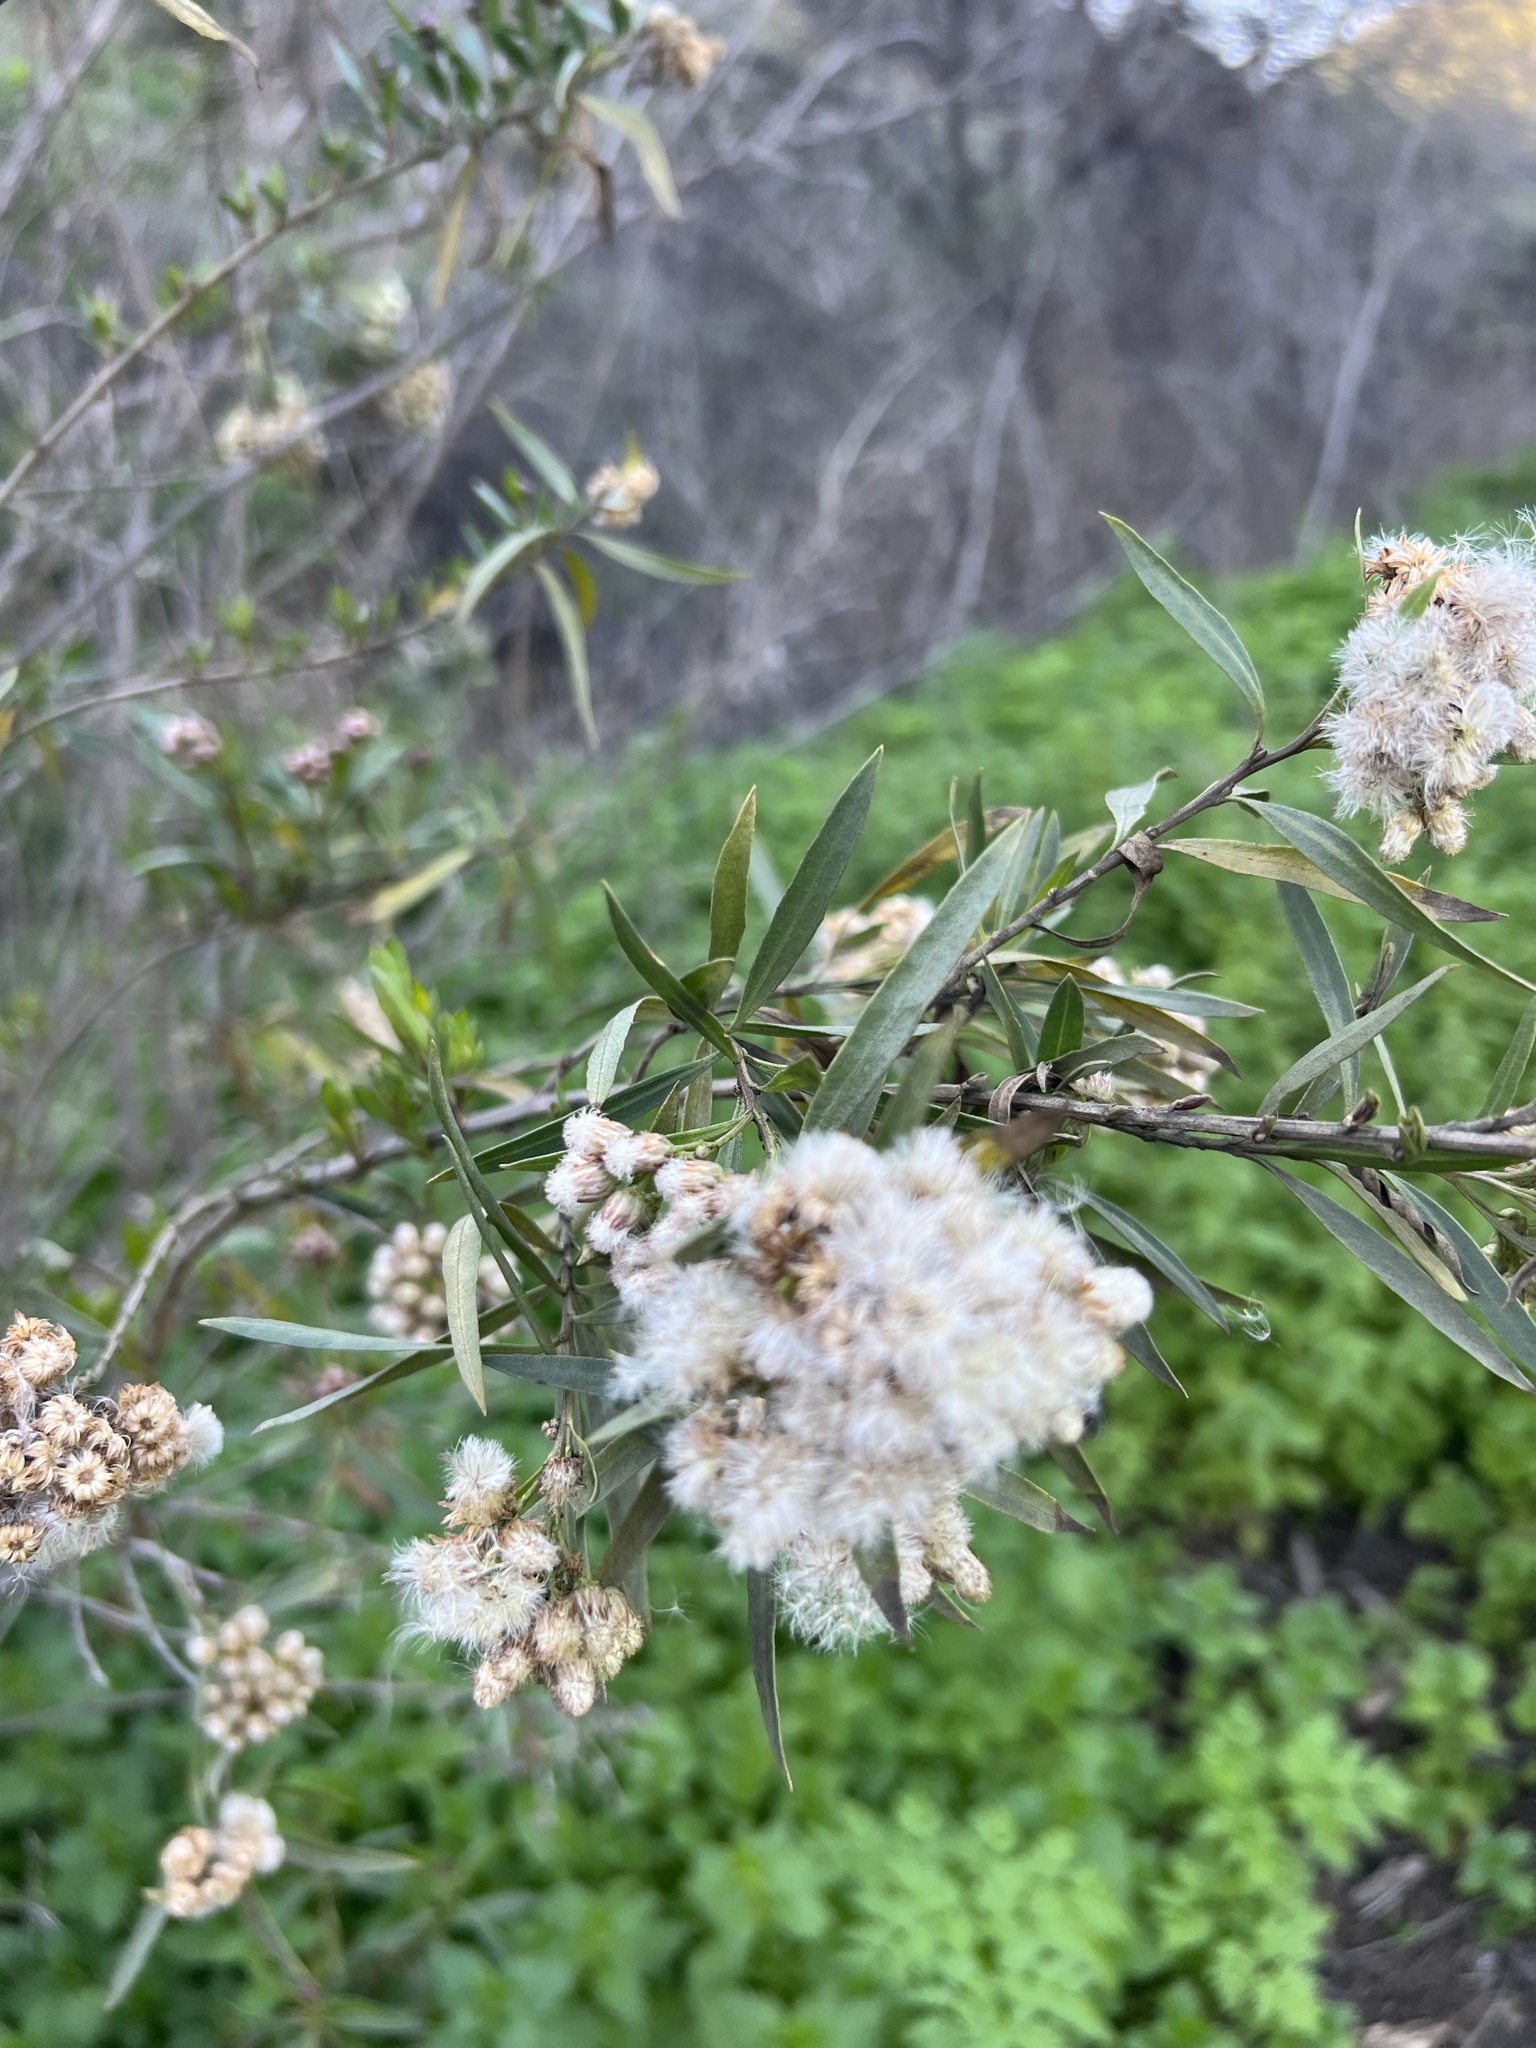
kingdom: Plantae
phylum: Tracheophyta
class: Magnoliopsida
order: Asterales
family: Asteraceae
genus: Baccharis
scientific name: Baccharis salicifolia
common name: Sticky baccharis
